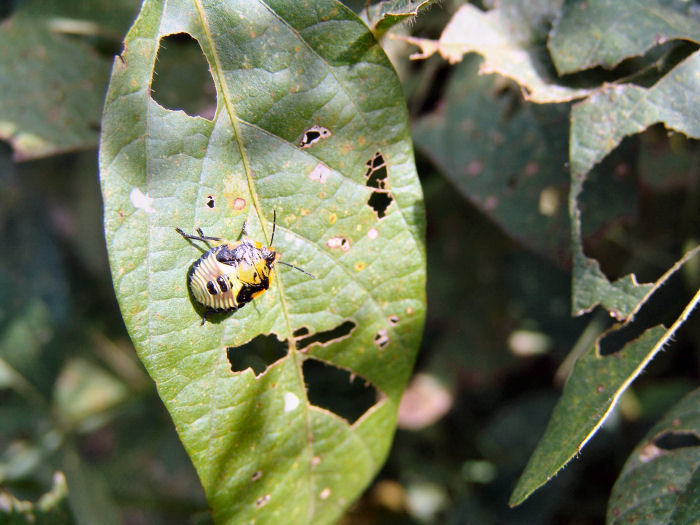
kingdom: Animalia
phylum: Arthropoda
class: Insecta
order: Hemiptera
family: Pentatomidae
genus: Chinavia
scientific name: Chinavia hilaris
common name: Green stink bug
